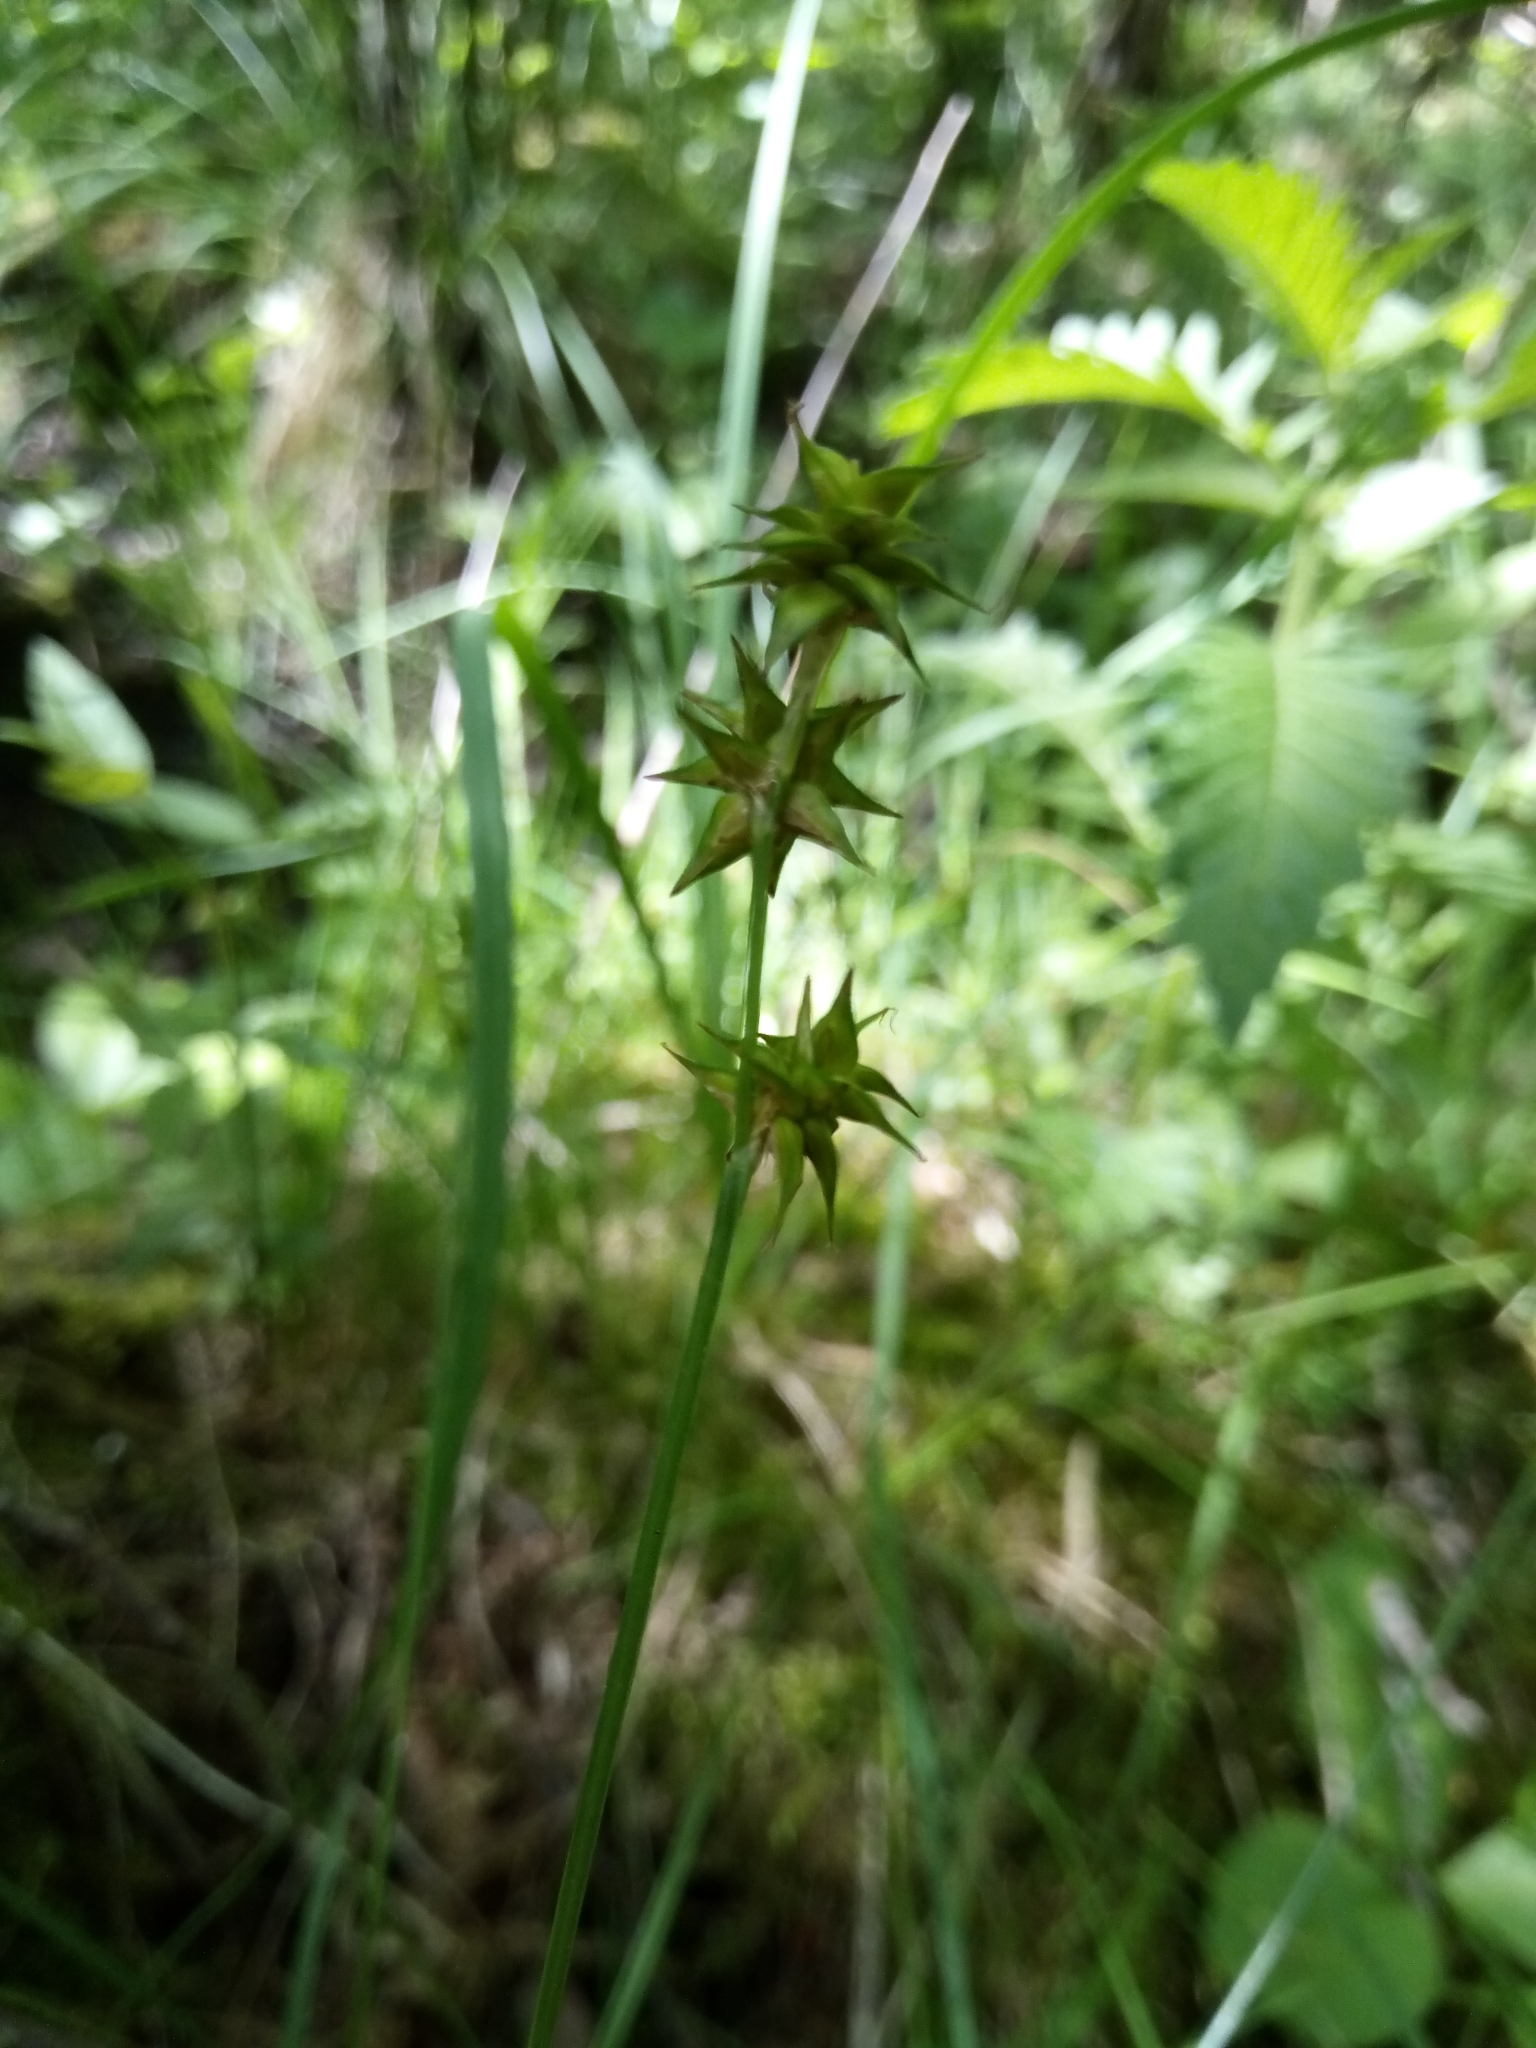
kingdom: Plantae
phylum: Tracheophyta
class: Liliopsida
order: Poales
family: Cyperaceae
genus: Carex
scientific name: Carex echinata
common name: Star sedge
